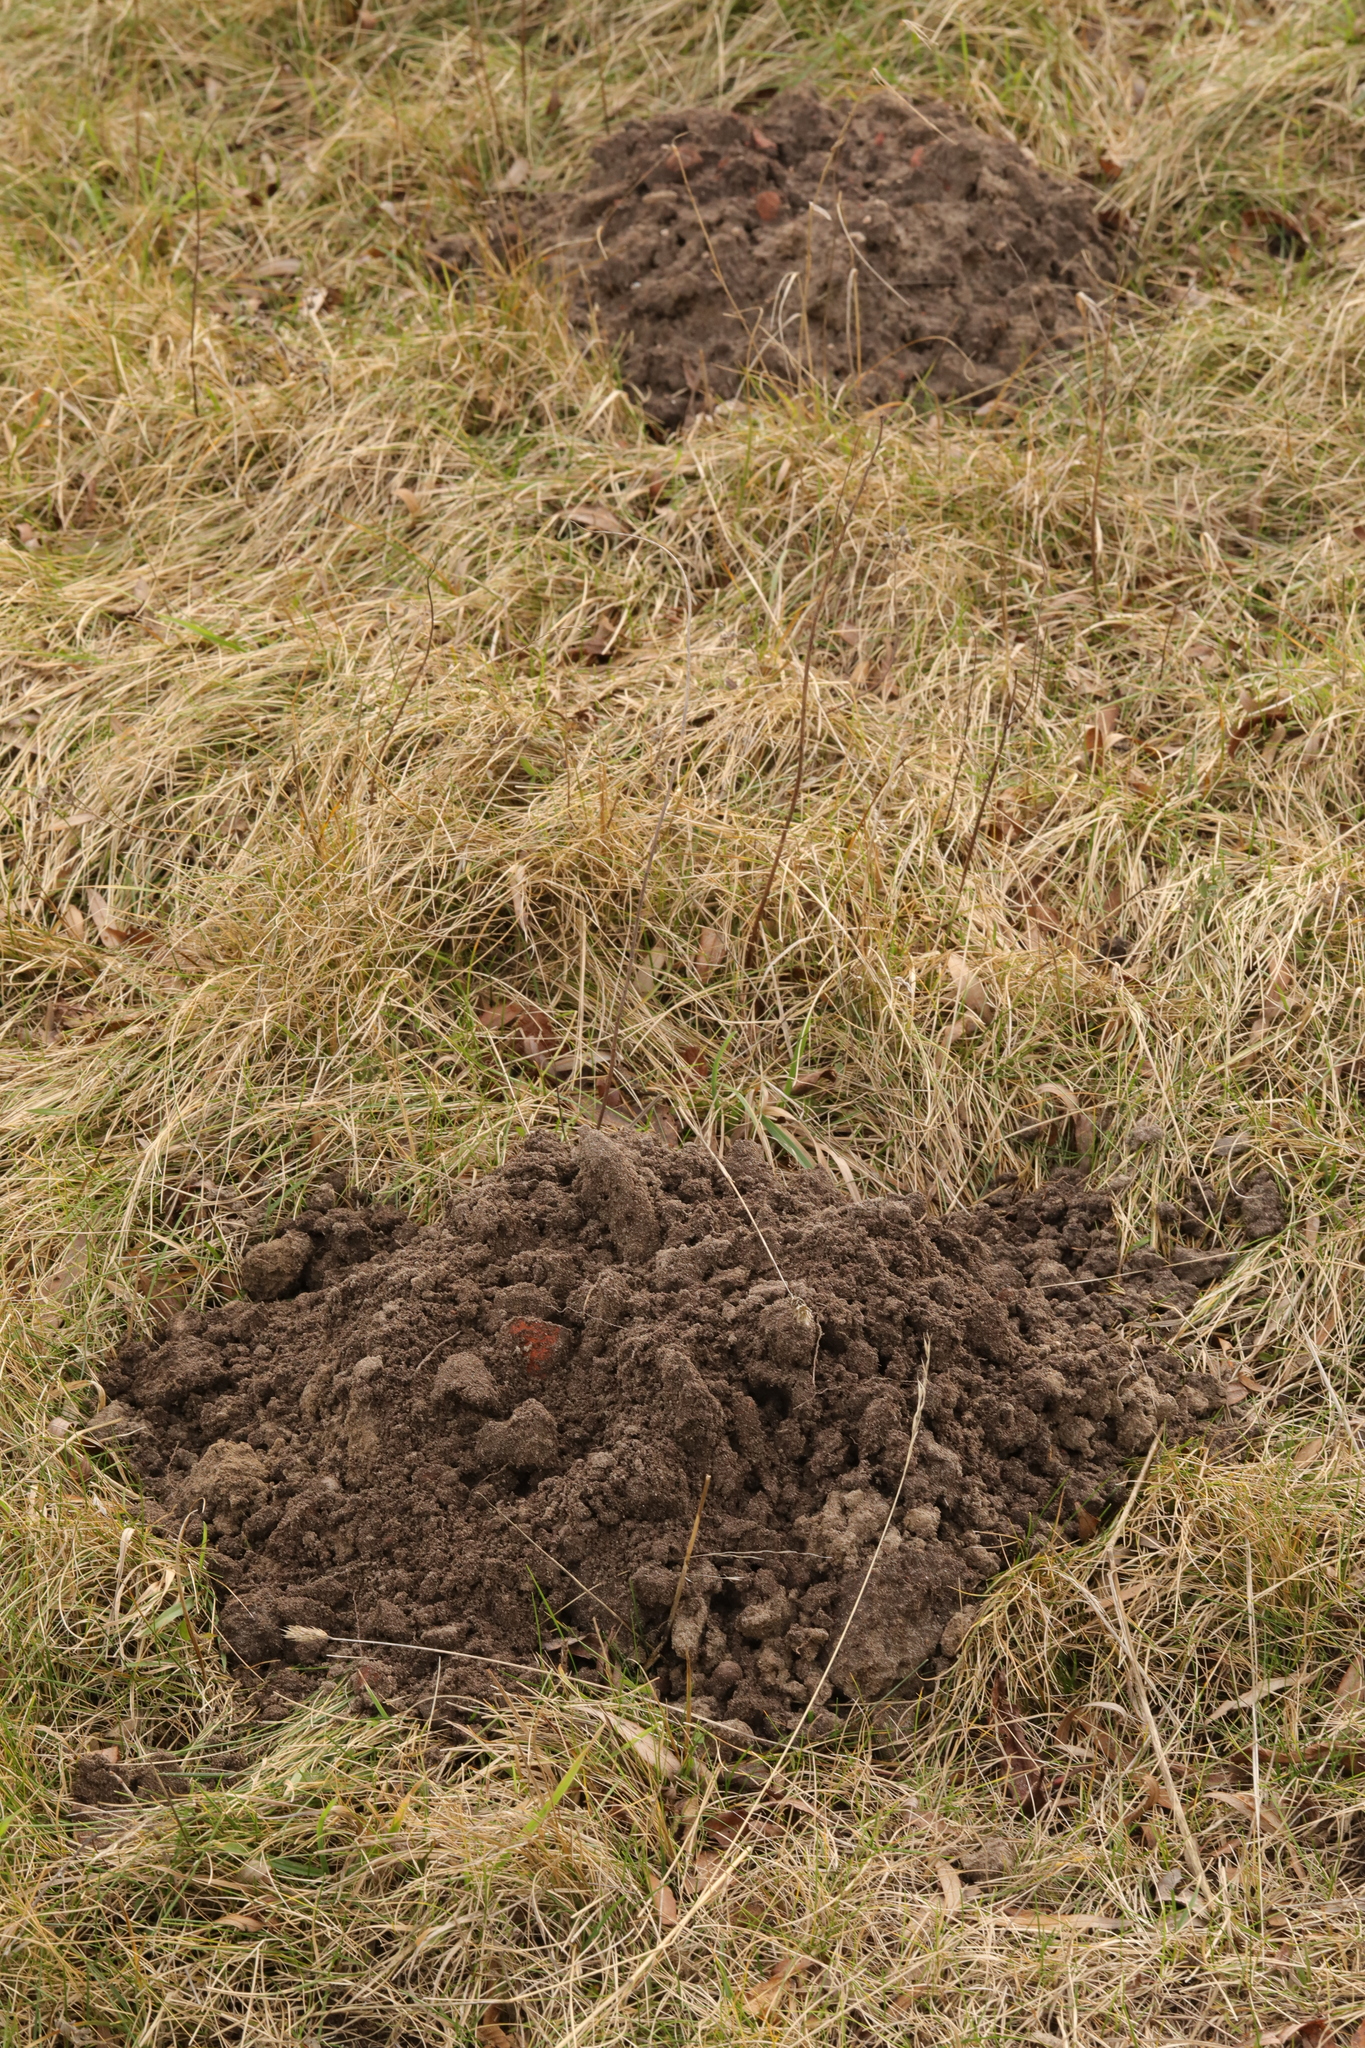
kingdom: Animalia
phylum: Chordata
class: Mammalia
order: Soricomorpha
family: Talpidae
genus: Talpa
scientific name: Talpa europaea
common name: European mole
